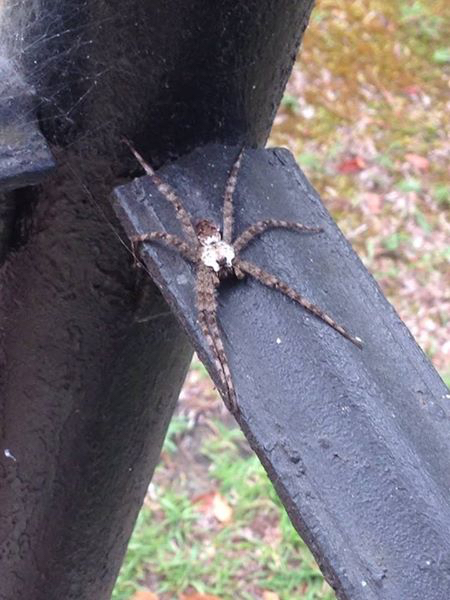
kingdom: Animalia
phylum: Arthropoda
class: Arachnida
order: Araneae
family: Pisauridae
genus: Dolomedes
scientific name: Dolomedes albineus
